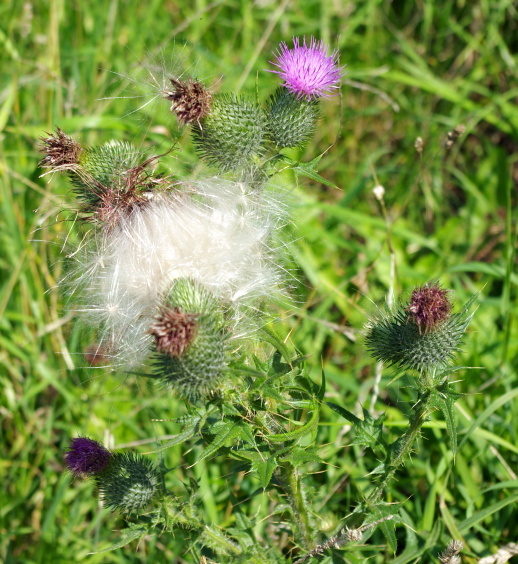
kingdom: Plantae
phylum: Tracheophyta
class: Magnoliopsida
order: Asterales
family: Asteraceae
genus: Cirsium
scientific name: Cirsium vulgare
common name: Bull thistle
